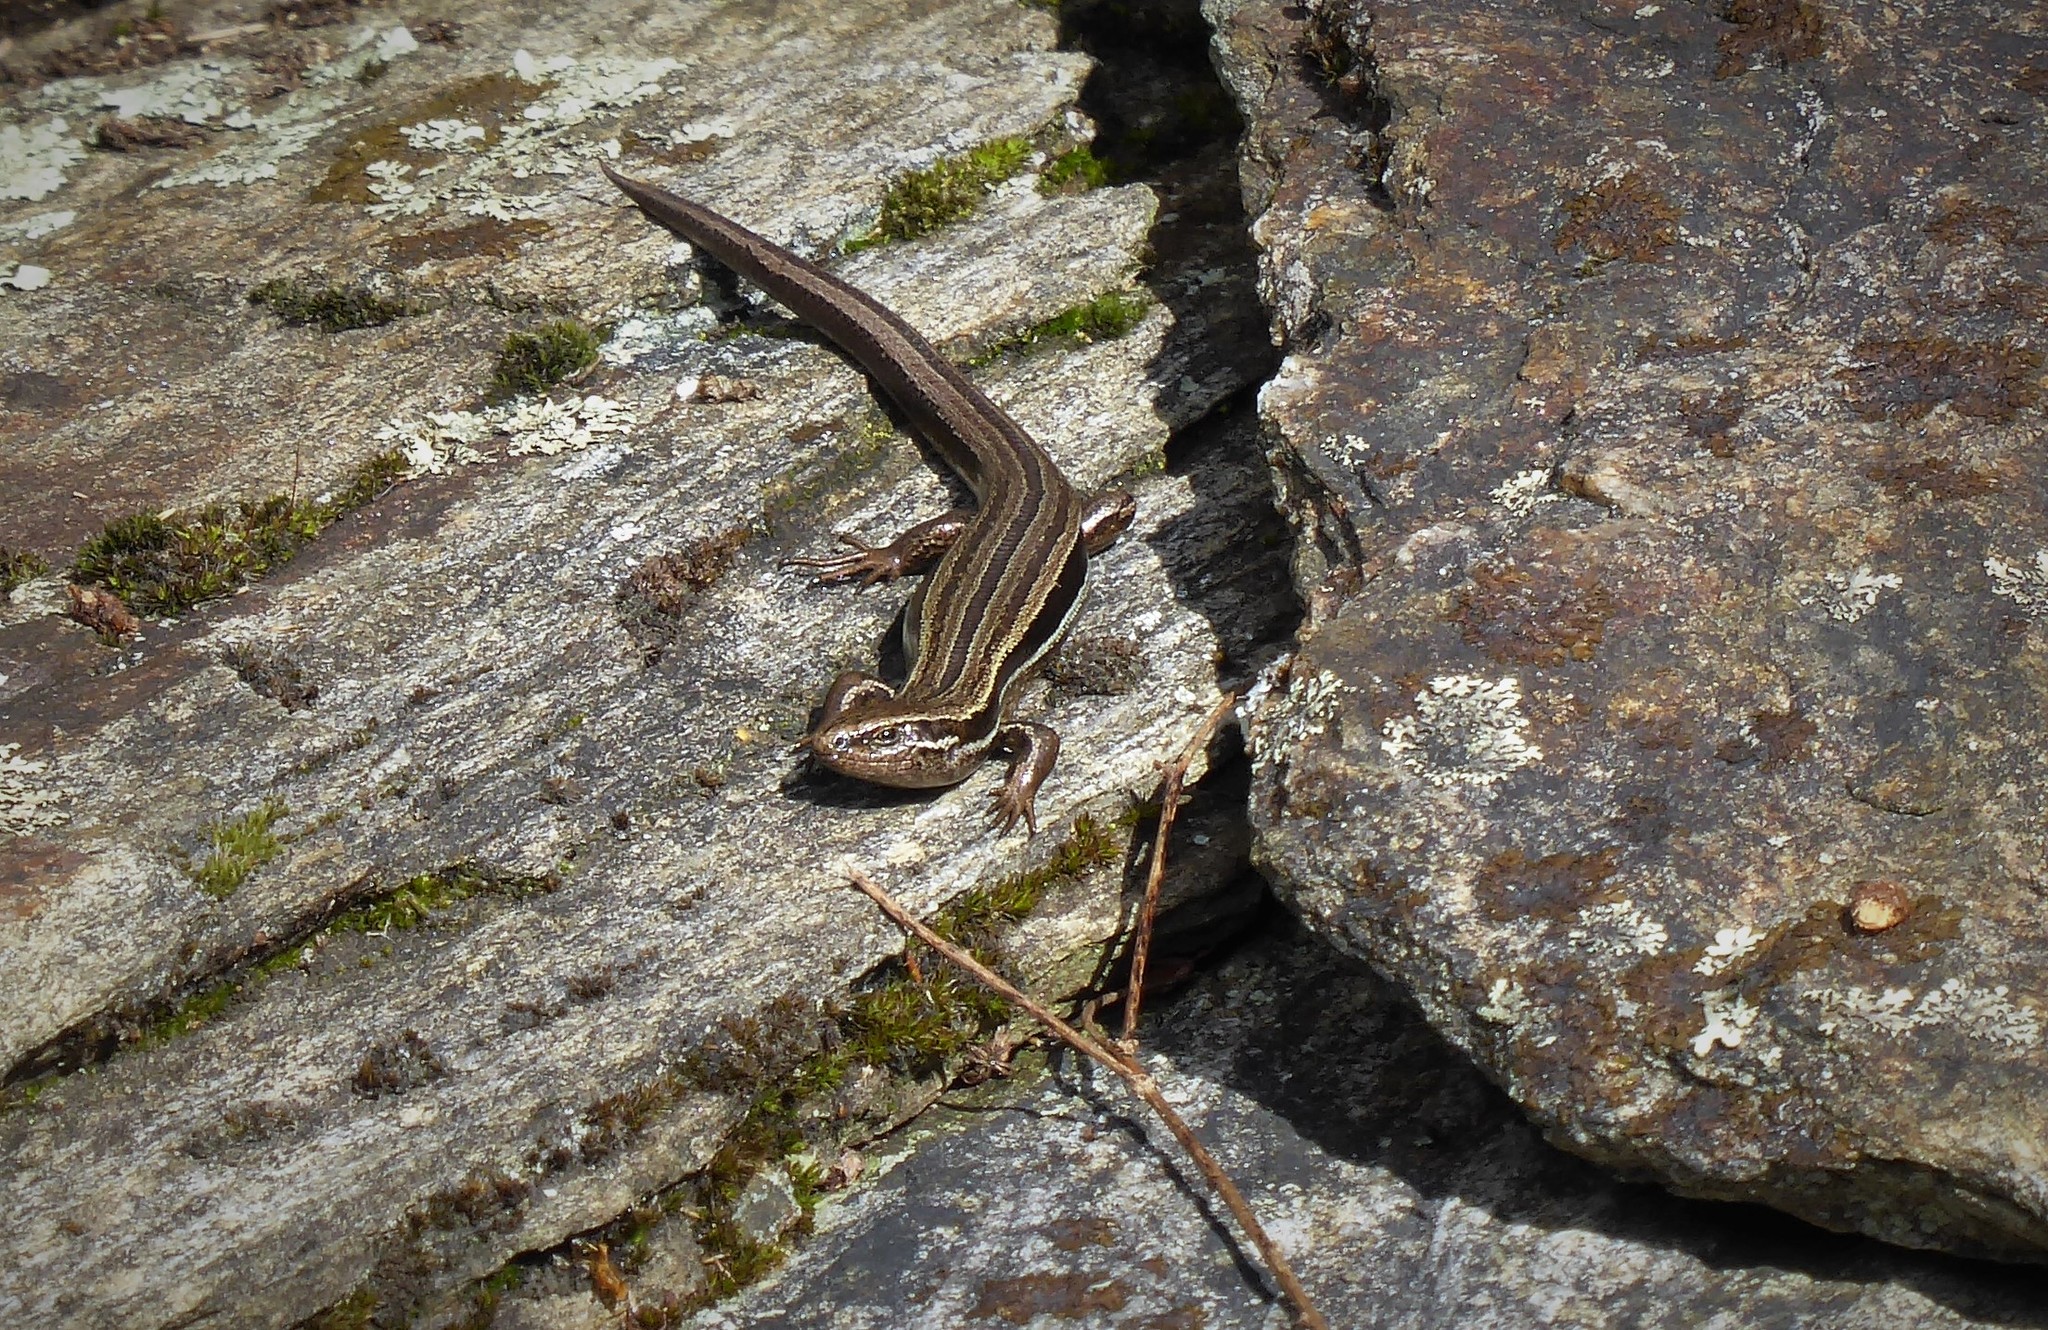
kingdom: Animalia
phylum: Chordata
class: Squamata
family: Scincidae
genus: Oligosoma
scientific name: Oligosoma polychroma
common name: Common new zealand skink
